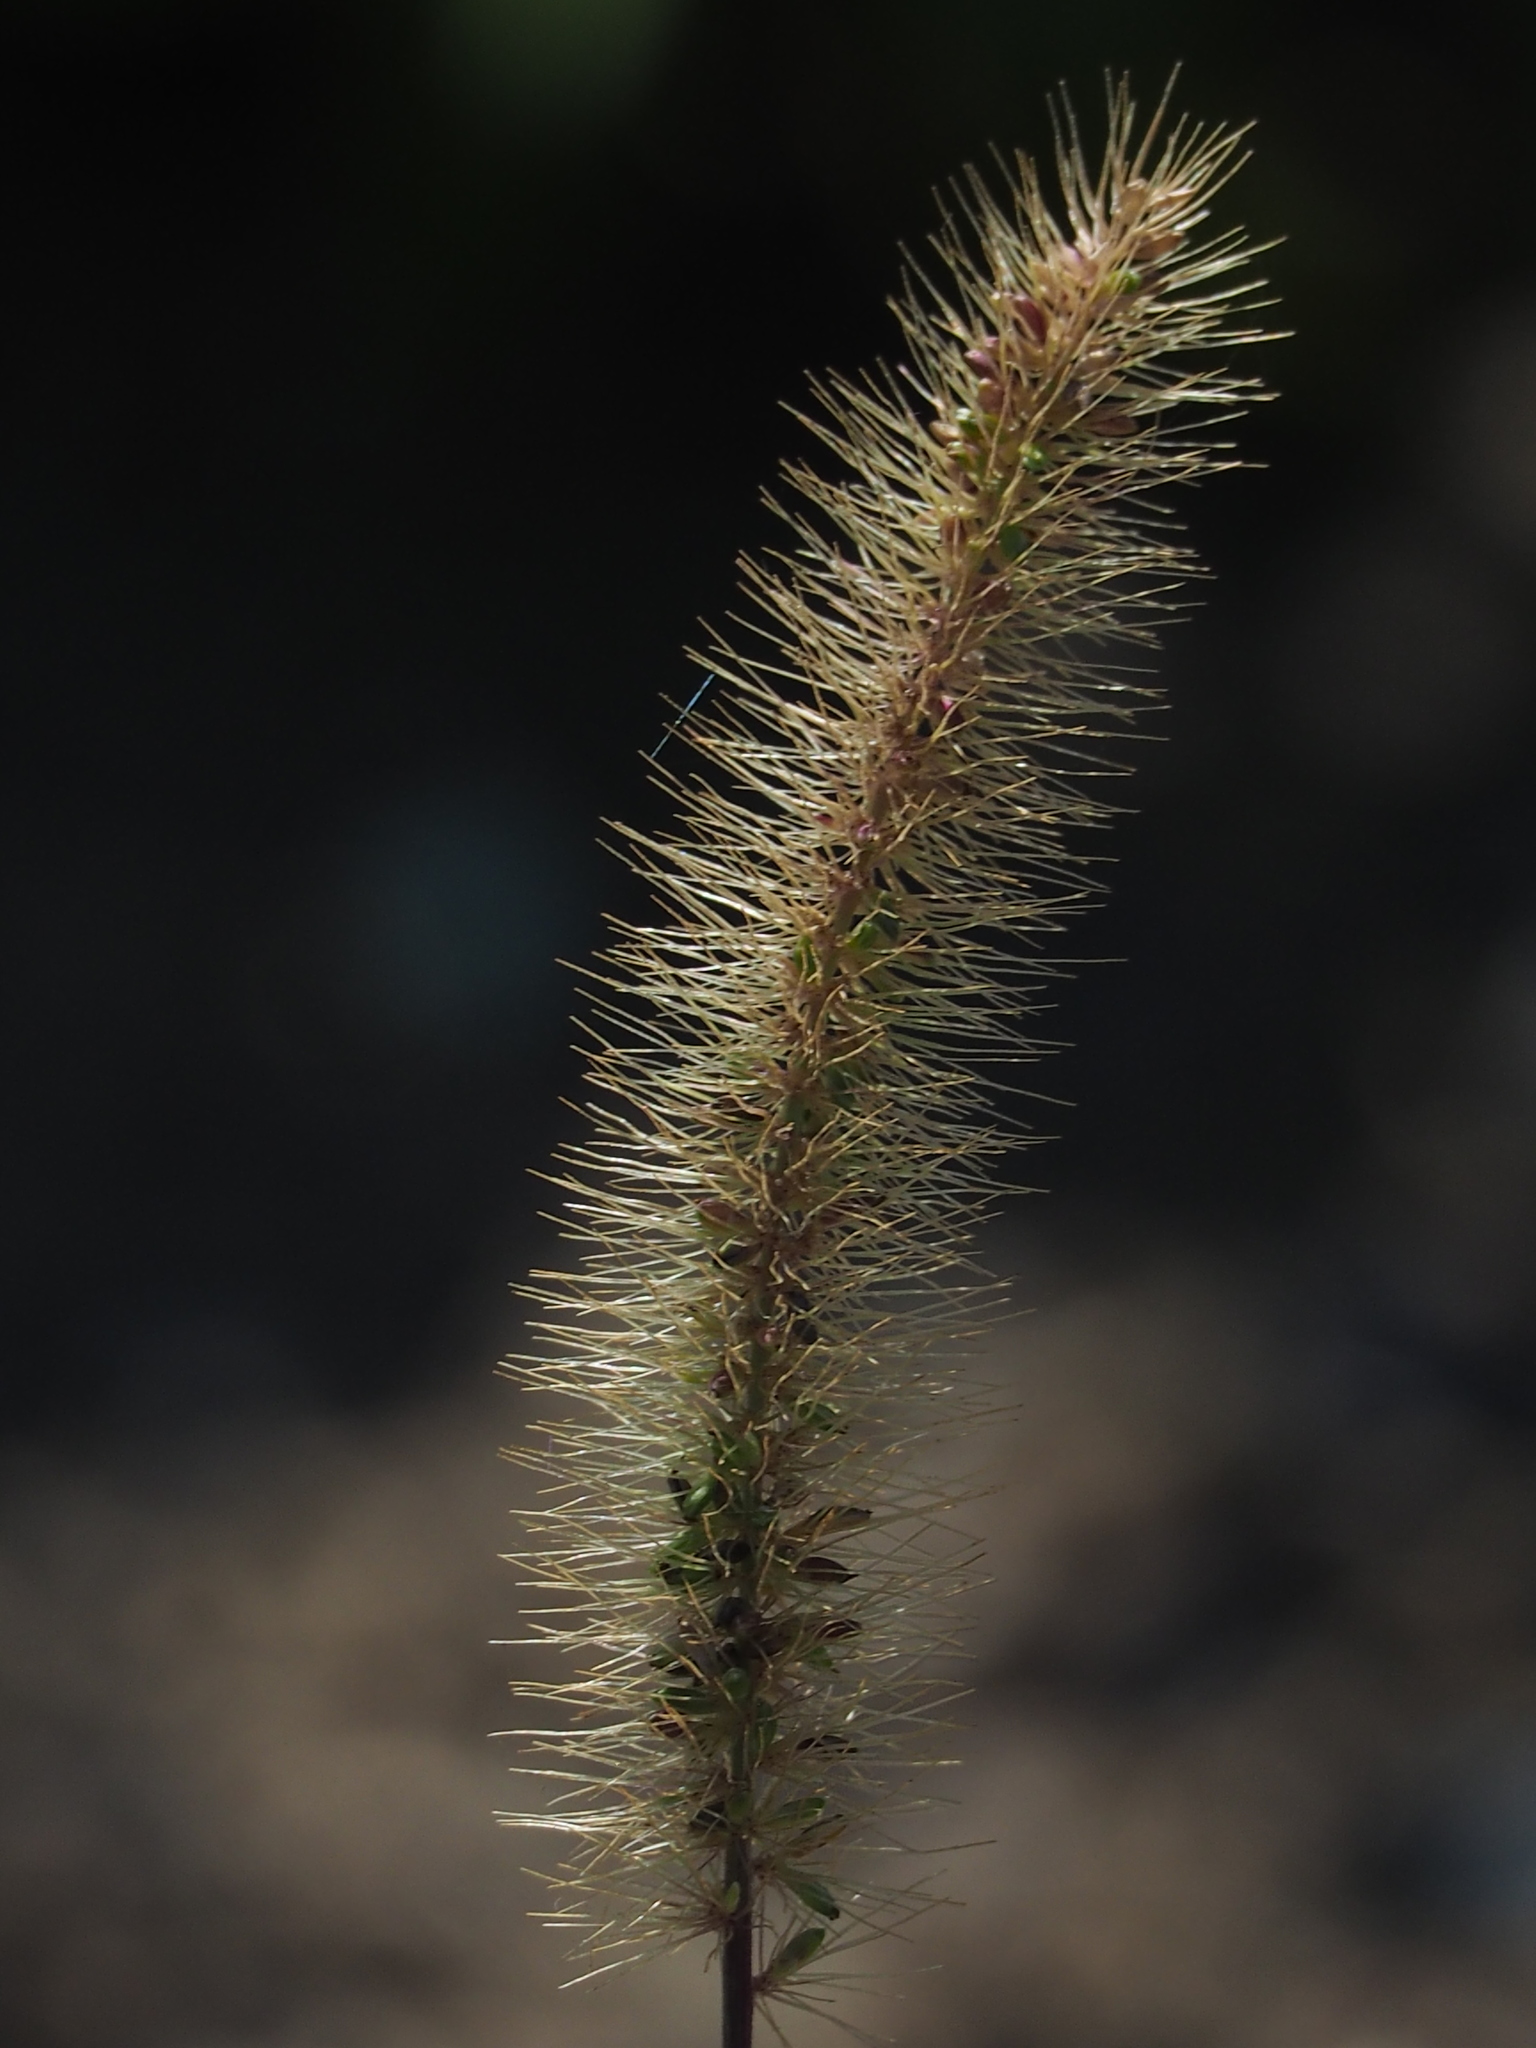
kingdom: Plantae
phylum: Tracheophyta
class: Liliopsida
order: Poales
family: Poaceae
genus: Setaria
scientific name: Setaria verticillata
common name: Hooked bristlegrass
